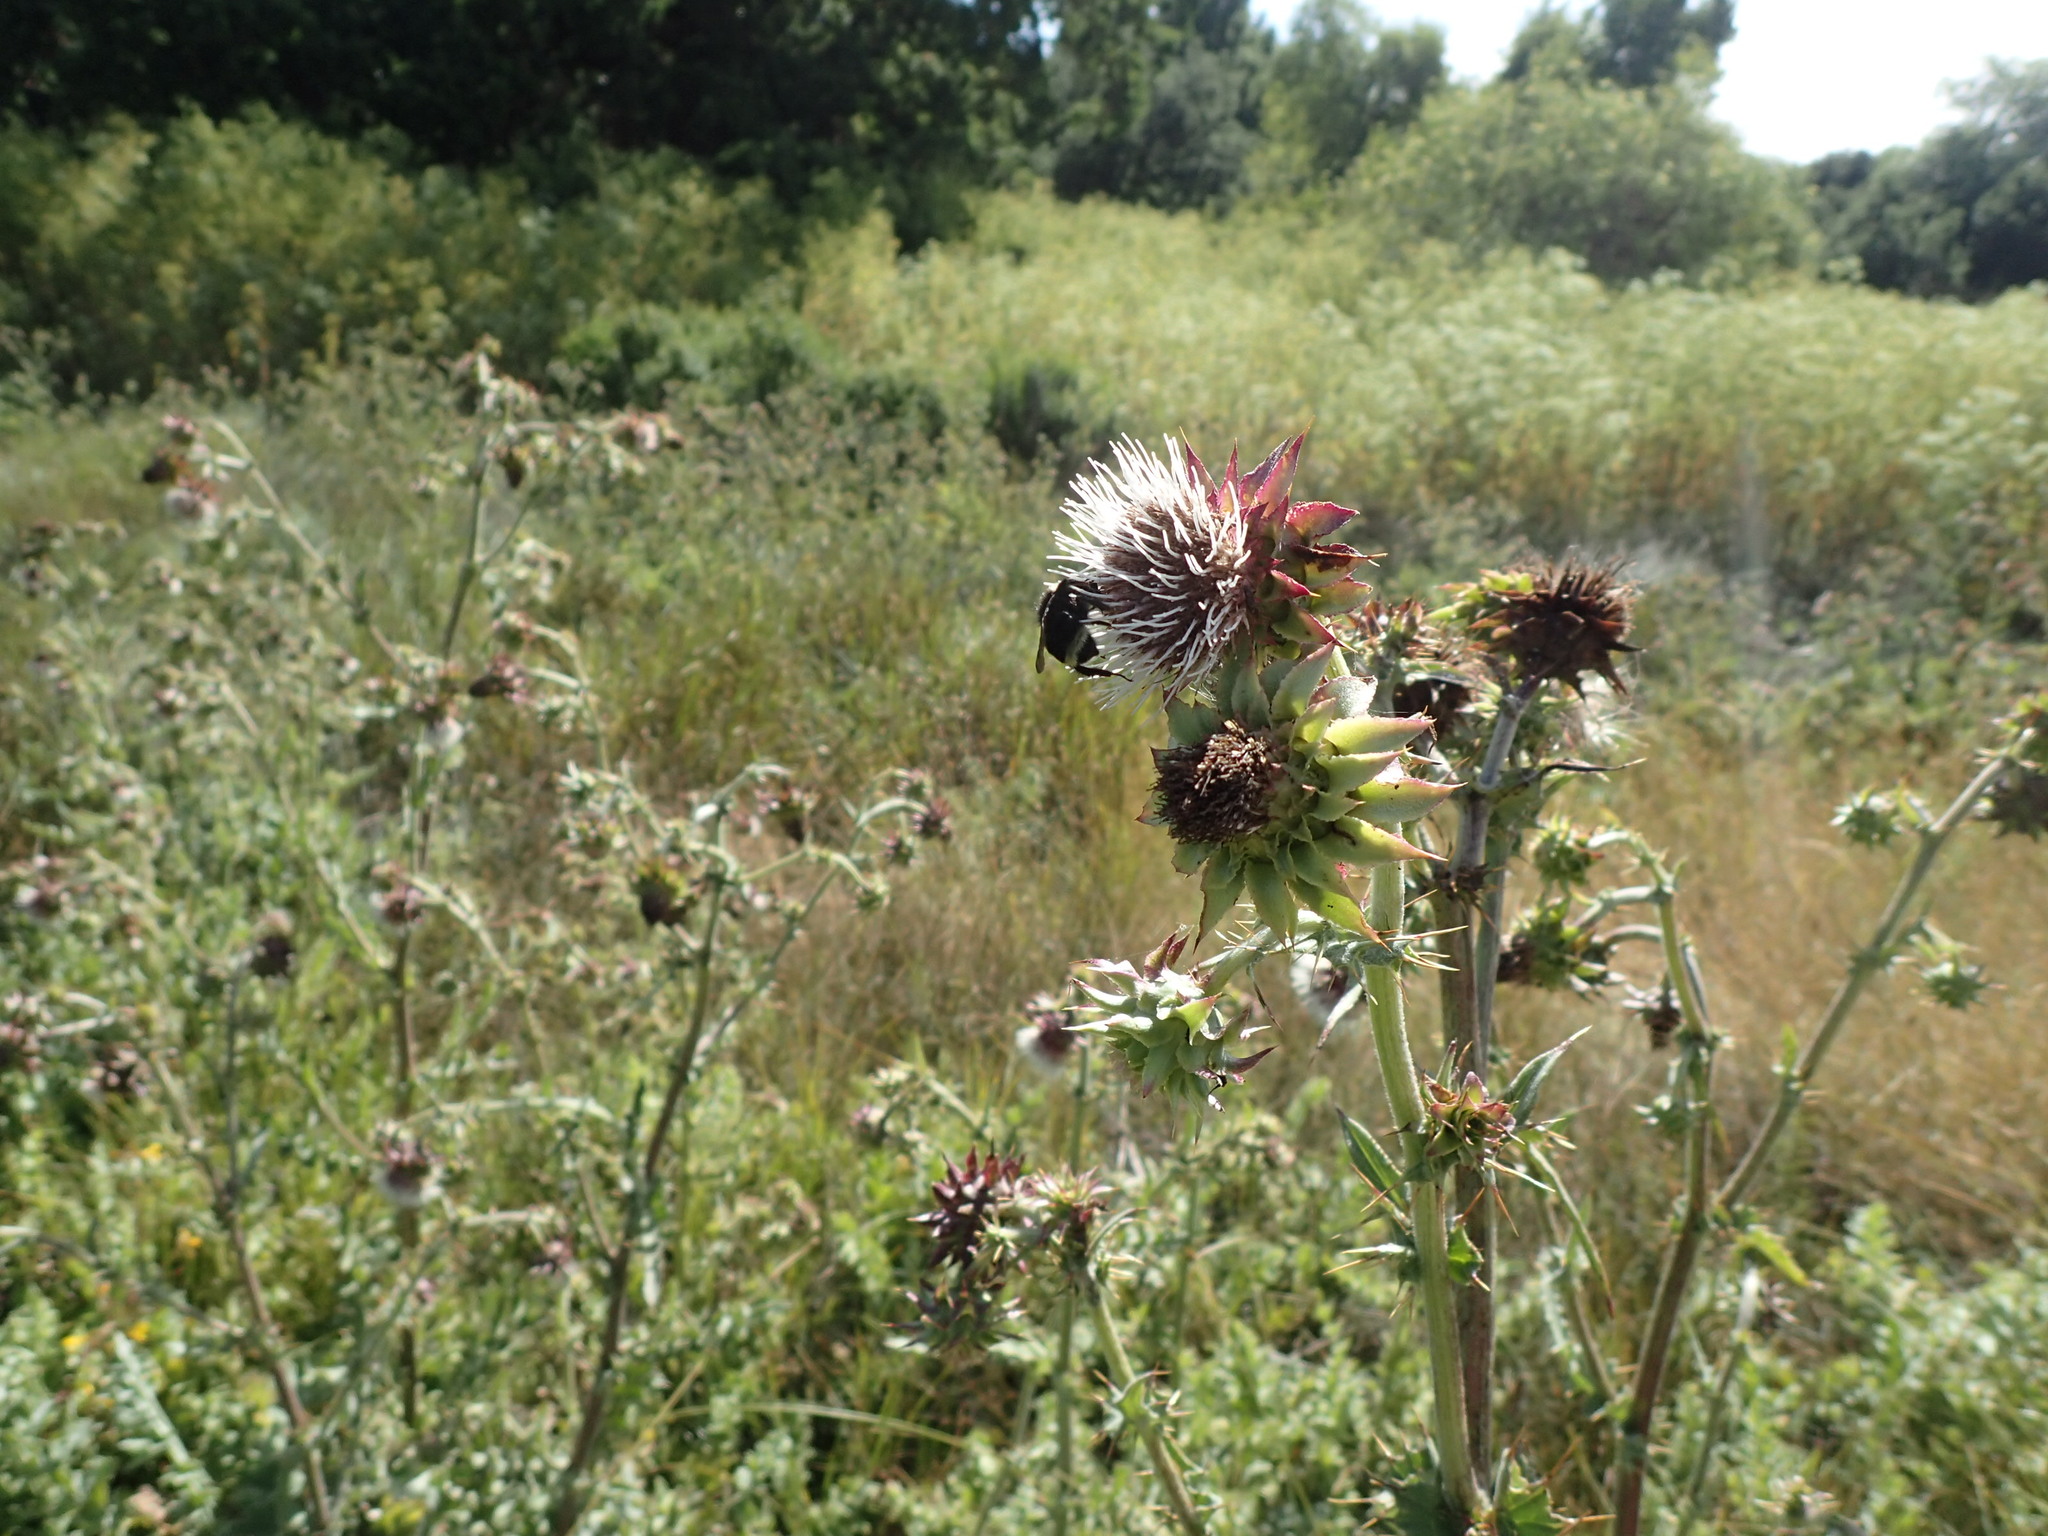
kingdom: Plantae
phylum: Tracheophyta
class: Magnoliopsida
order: Asterales
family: Asteraceae
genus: Cirsium
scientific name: Cirsium fontinale
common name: Fountain thistle
